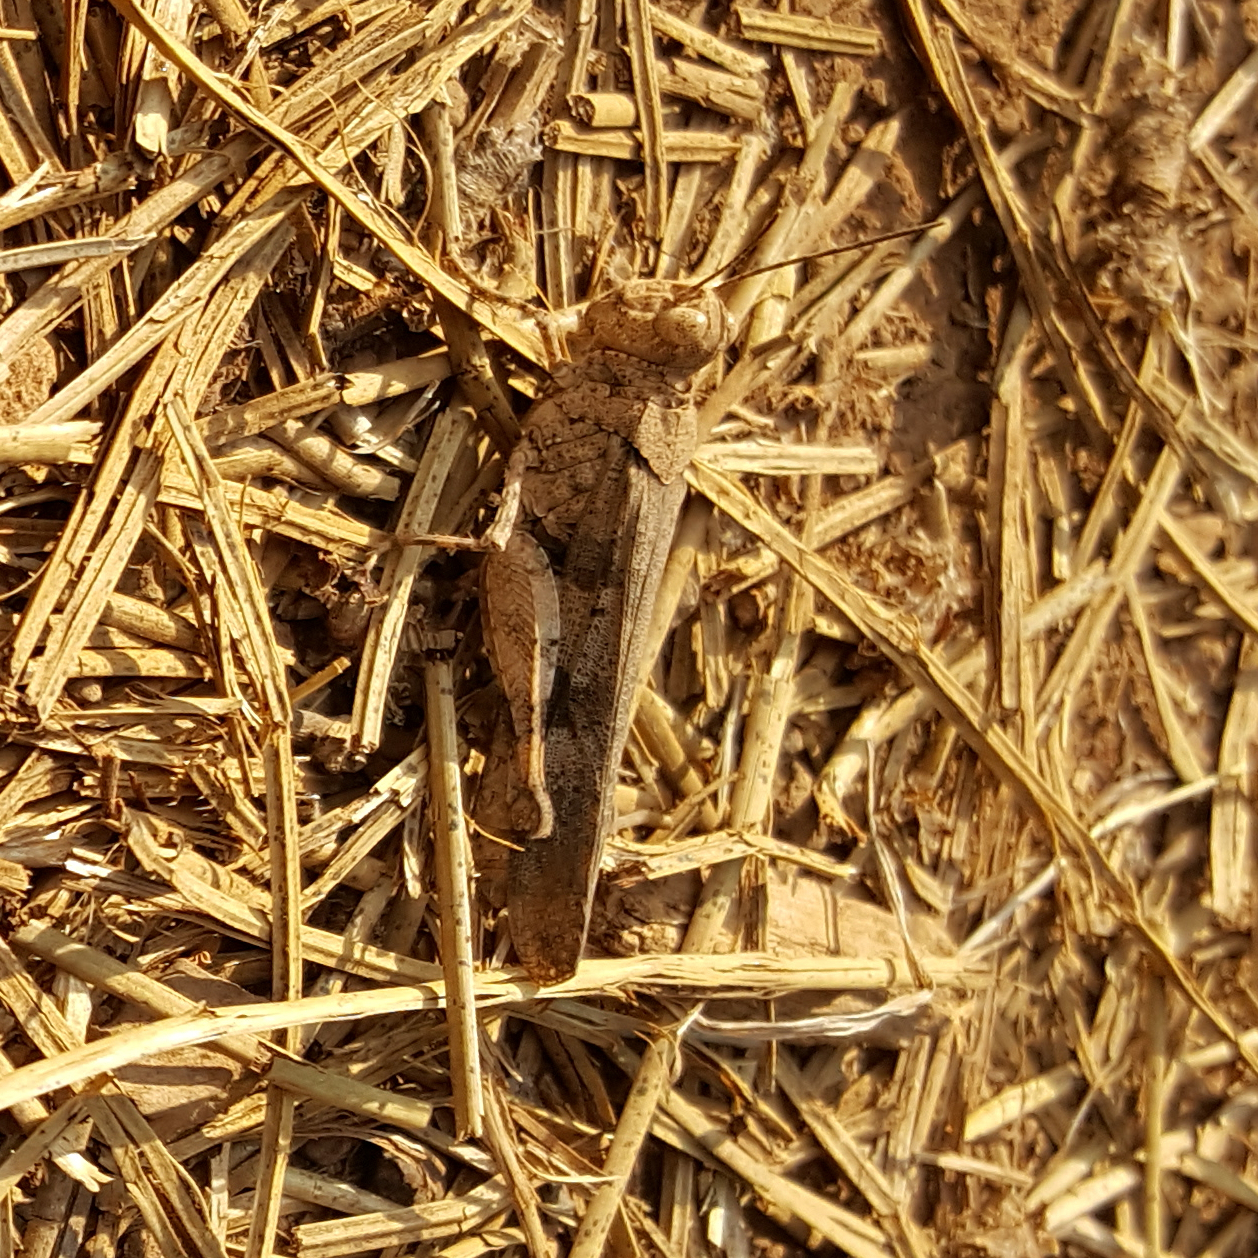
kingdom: Animalia
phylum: Arthropoda
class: Insecta
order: Orthoptera
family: Acrididae
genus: Trimerotropis
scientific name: Trimerotropis fontana
